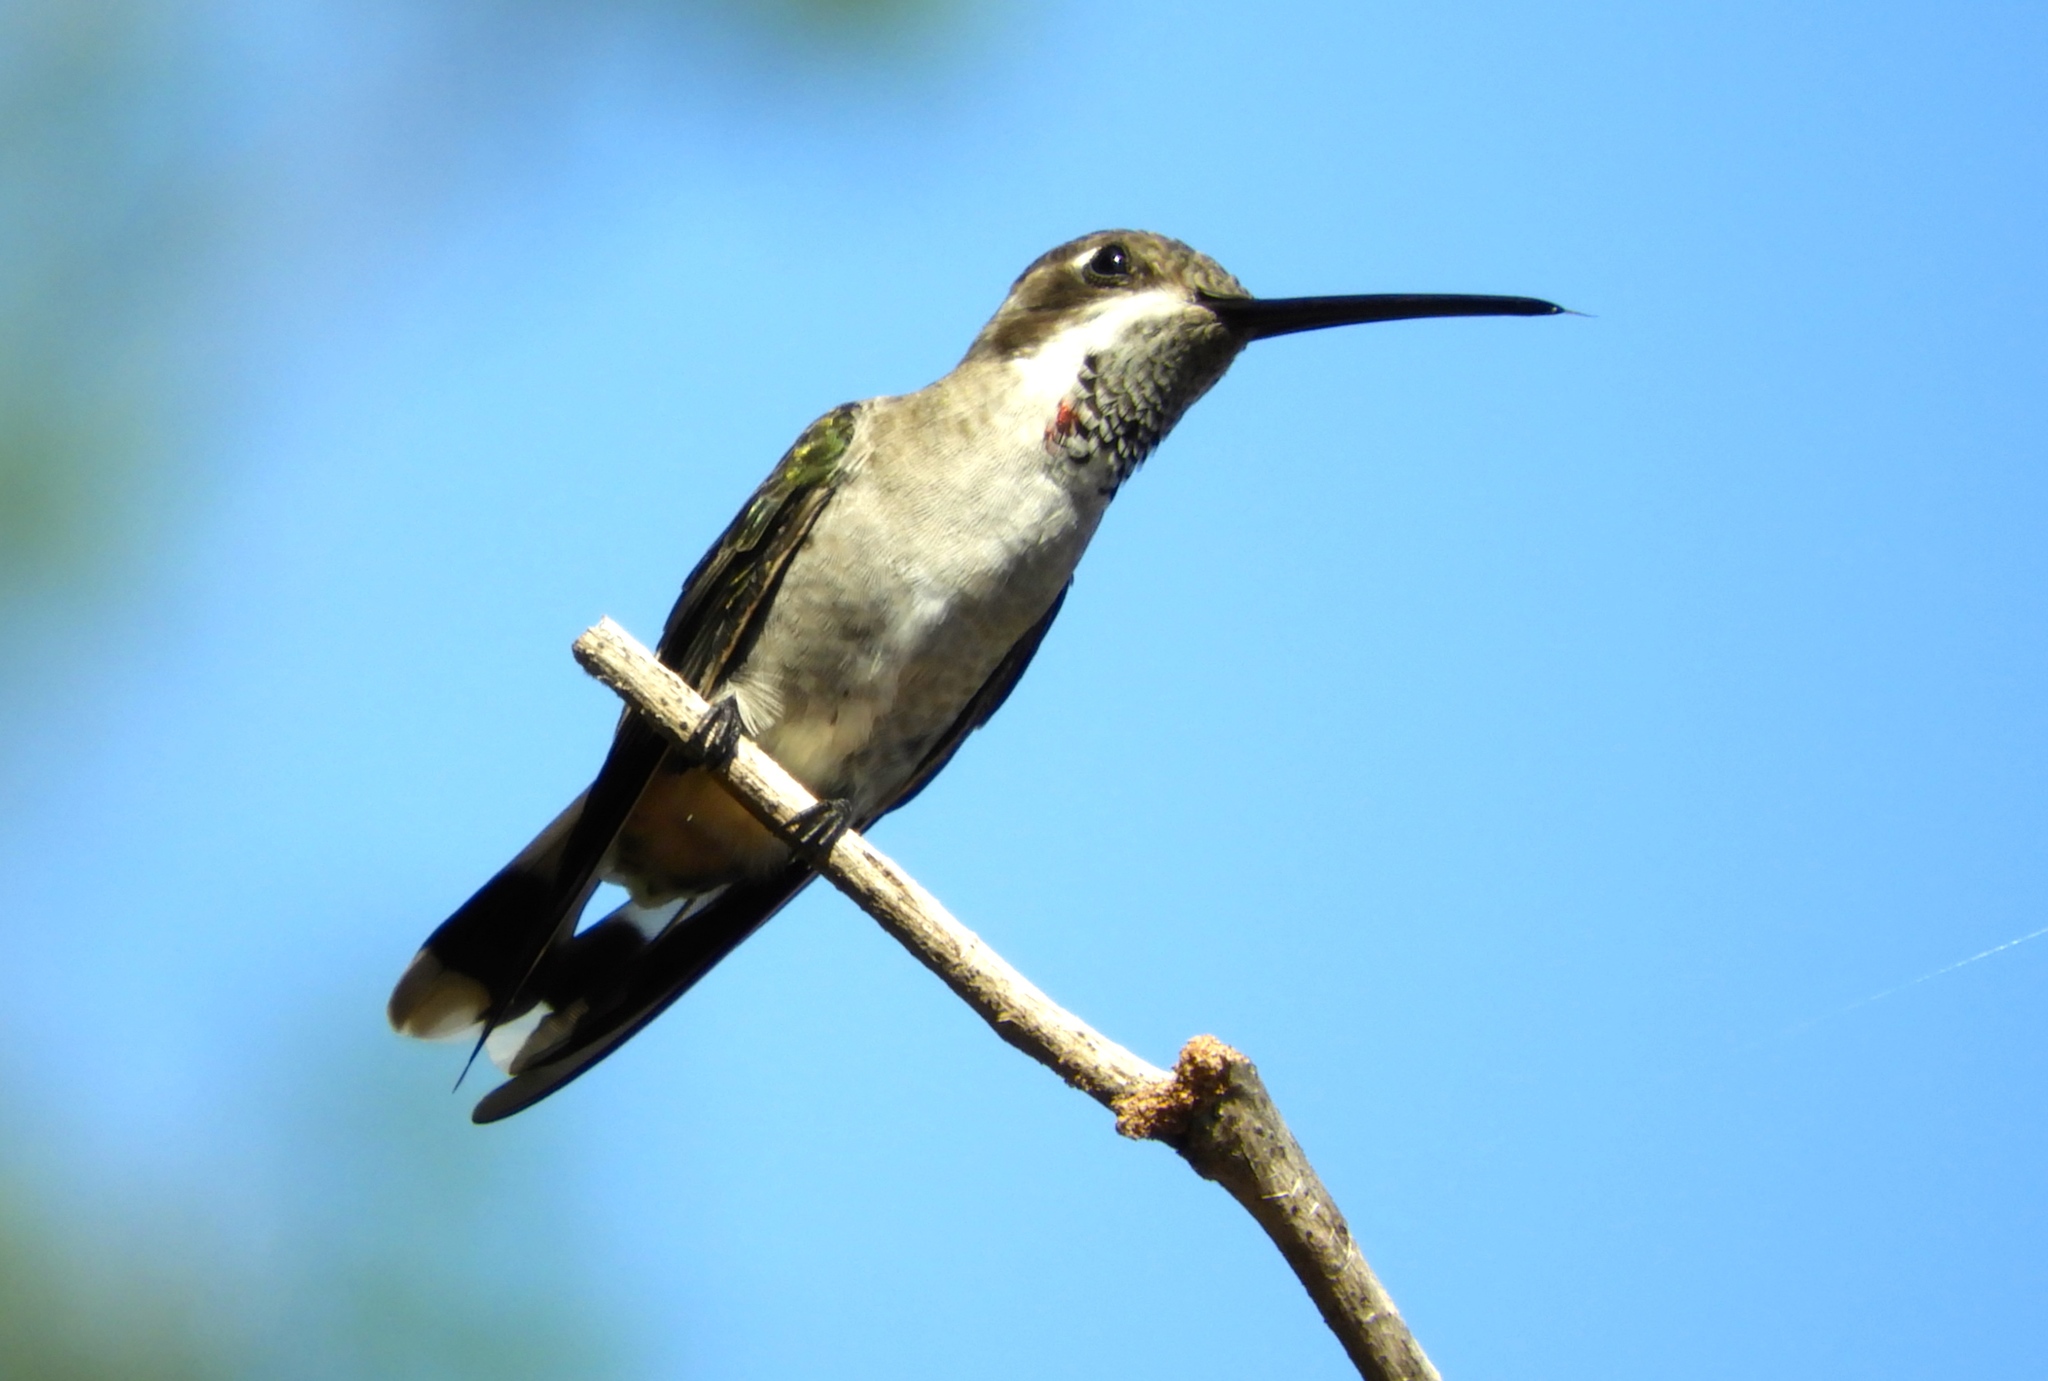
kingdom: Animalia
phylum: Chordata
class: Aves
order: Apodiformes
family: Trochilidae
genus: Heliomaster
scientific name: Heliomaster constantii
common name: Plain-capped starthroat
